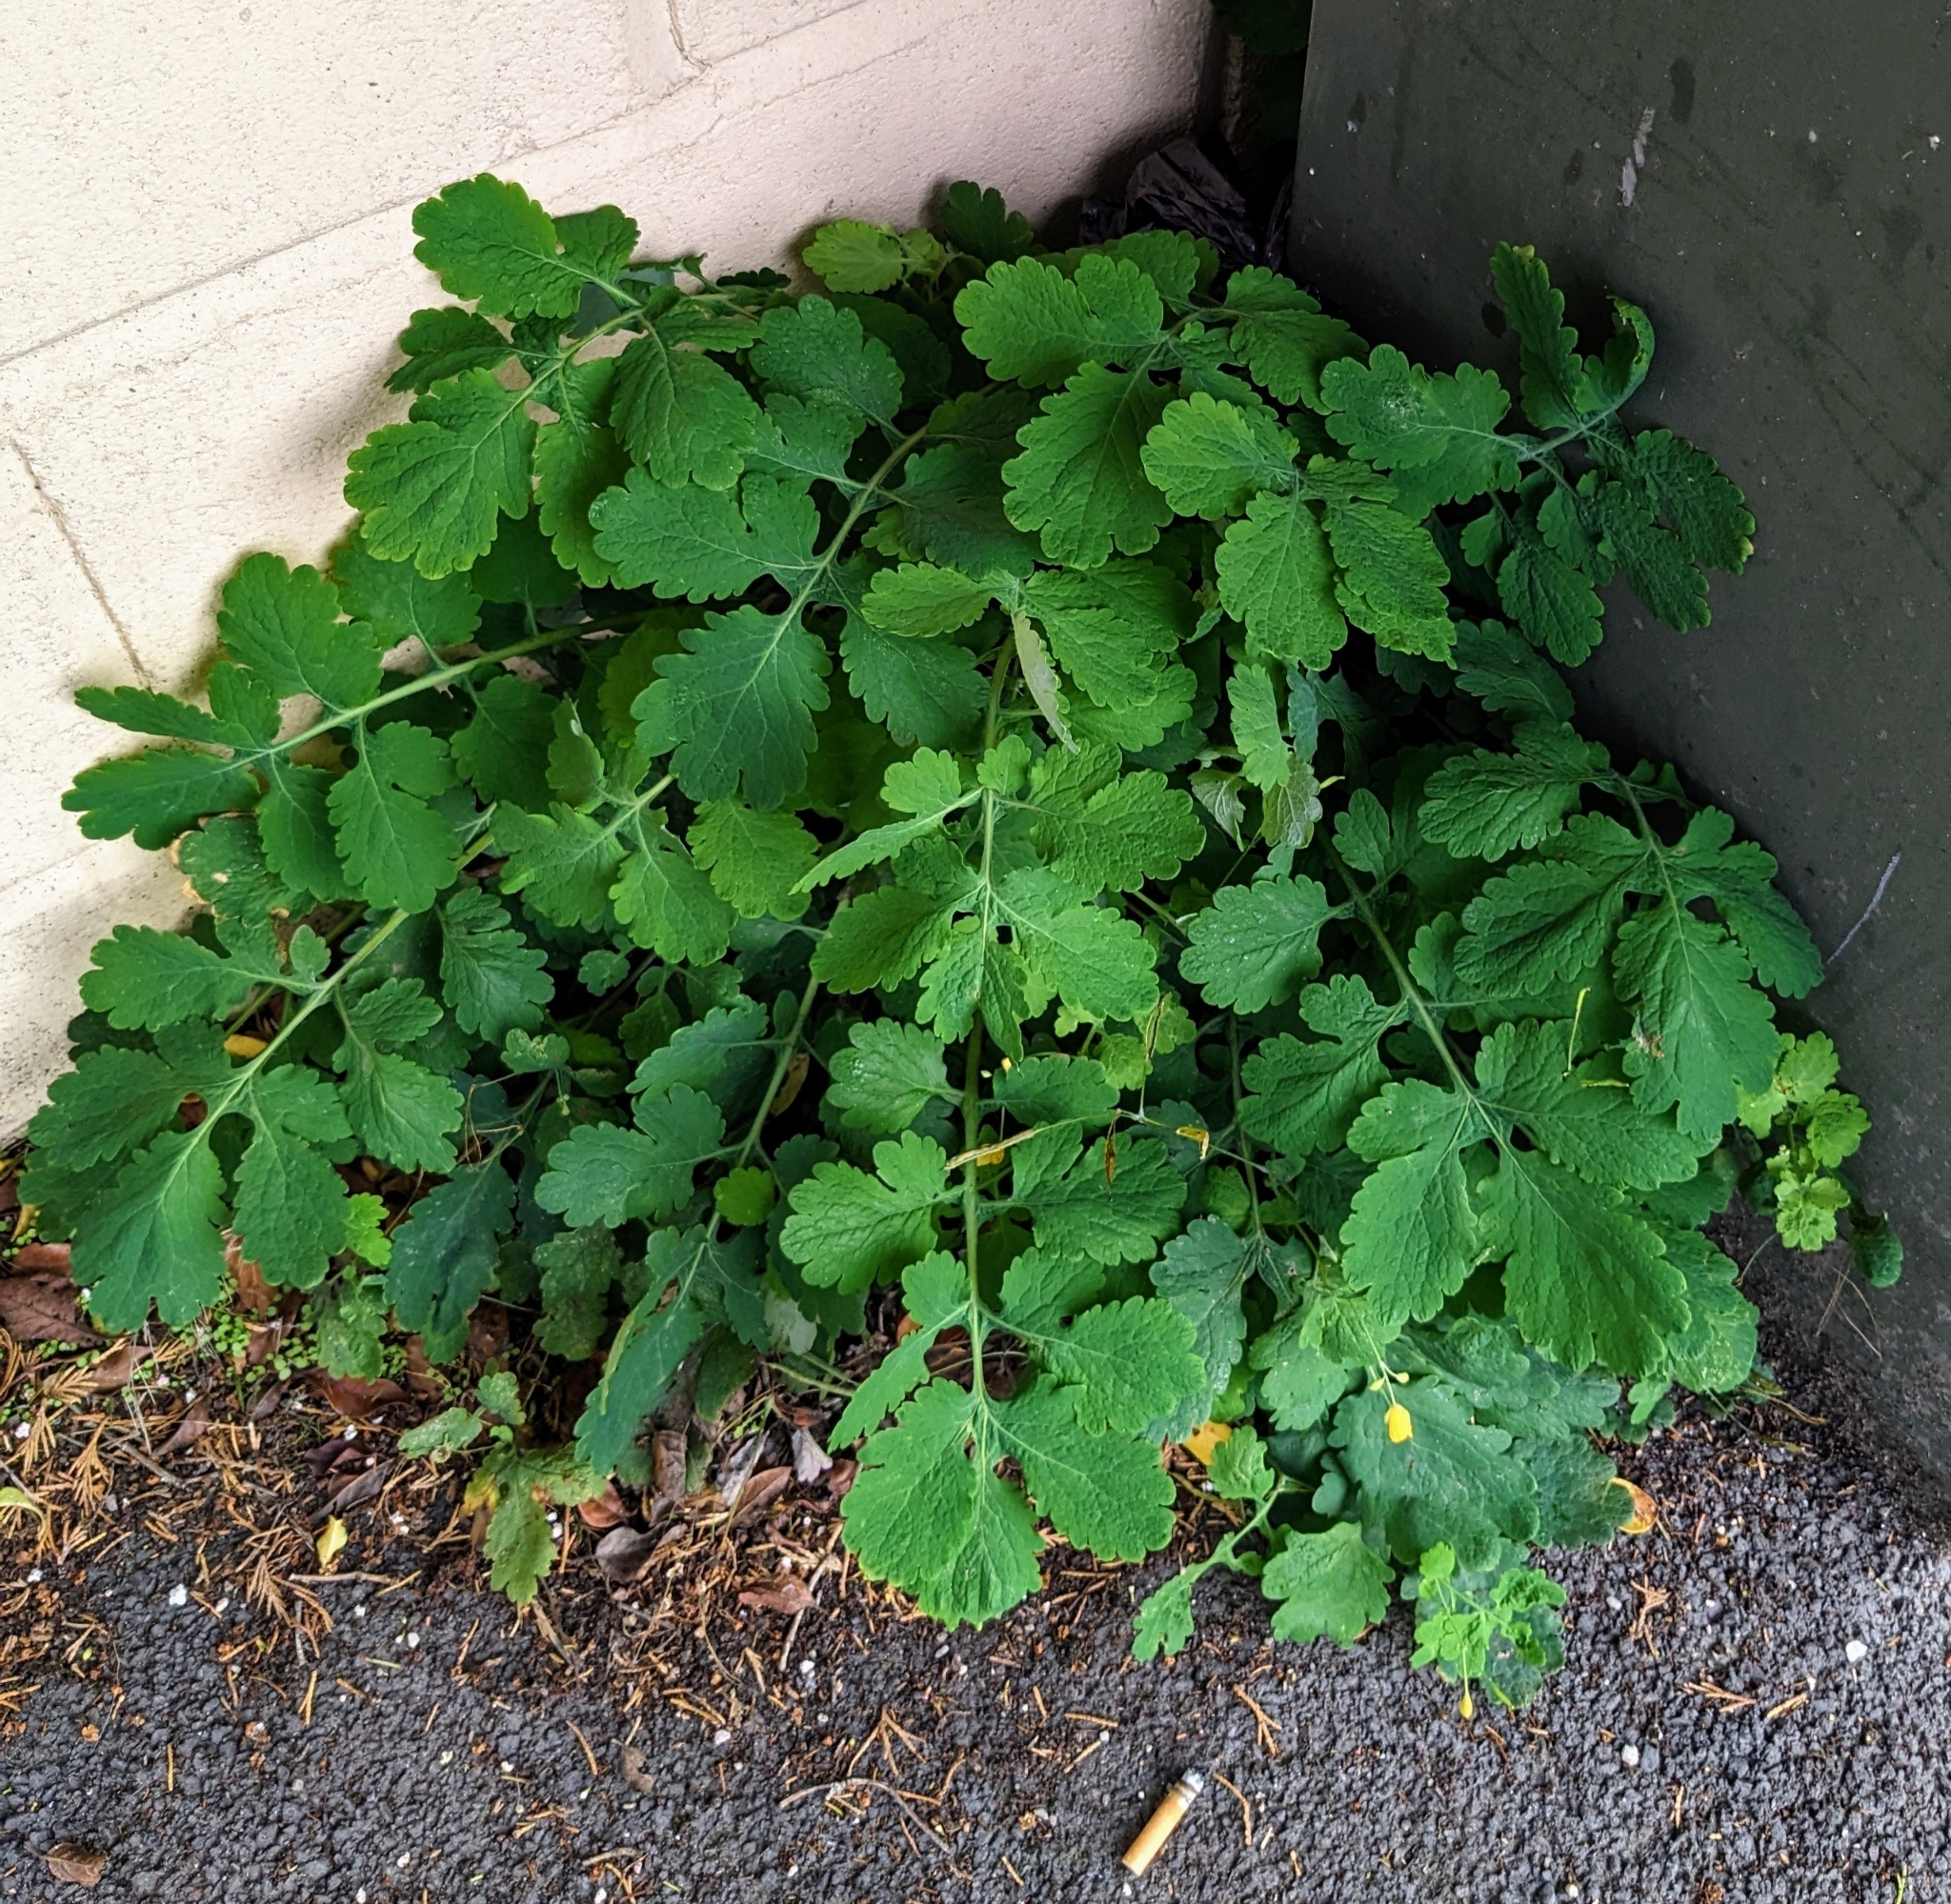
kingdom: Plantae
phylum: Tracheophyta
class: Magnoliopsida
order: Ranunculales
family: Papaveraceae
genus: Chelidonium
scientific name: Chelidonium majus
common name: Greater celandine
